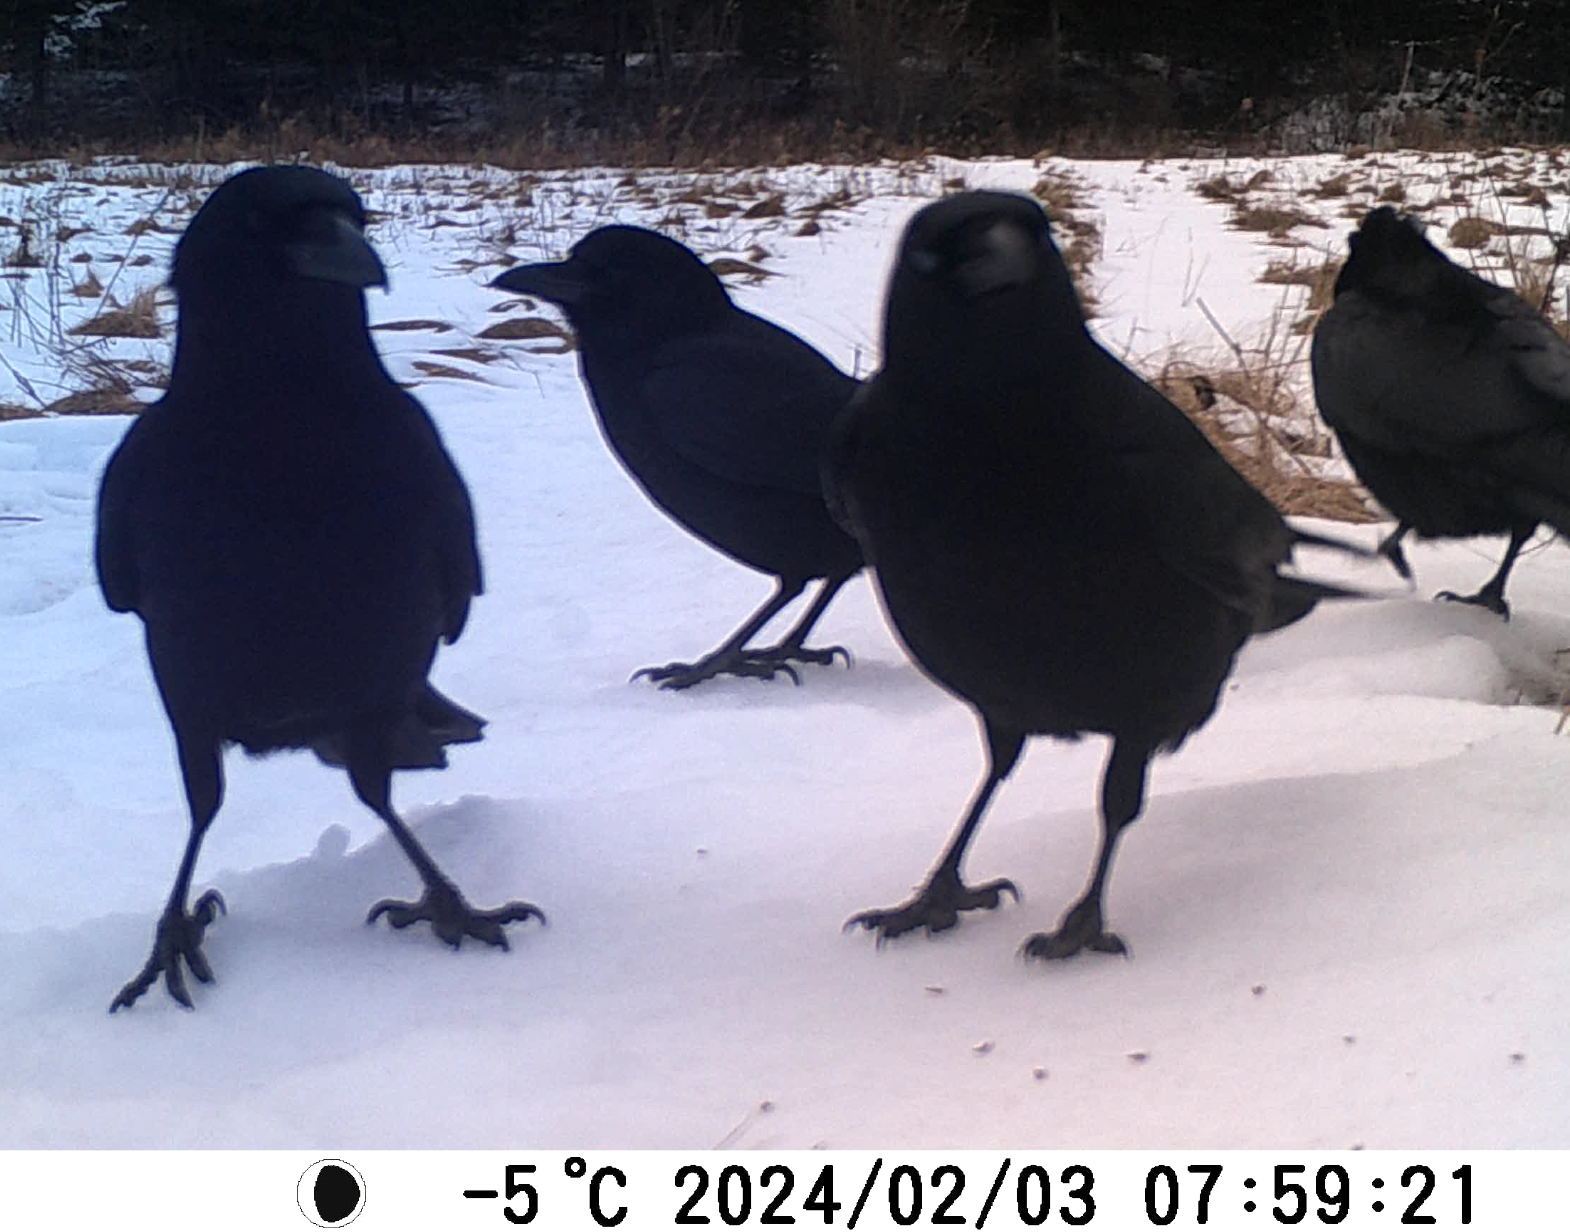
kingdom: Animalia
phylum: Chordata
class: Aves
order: Passeriformes
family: Corvidae
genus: Corvus
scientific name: Corvus brachyrhynchos
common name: American crow
